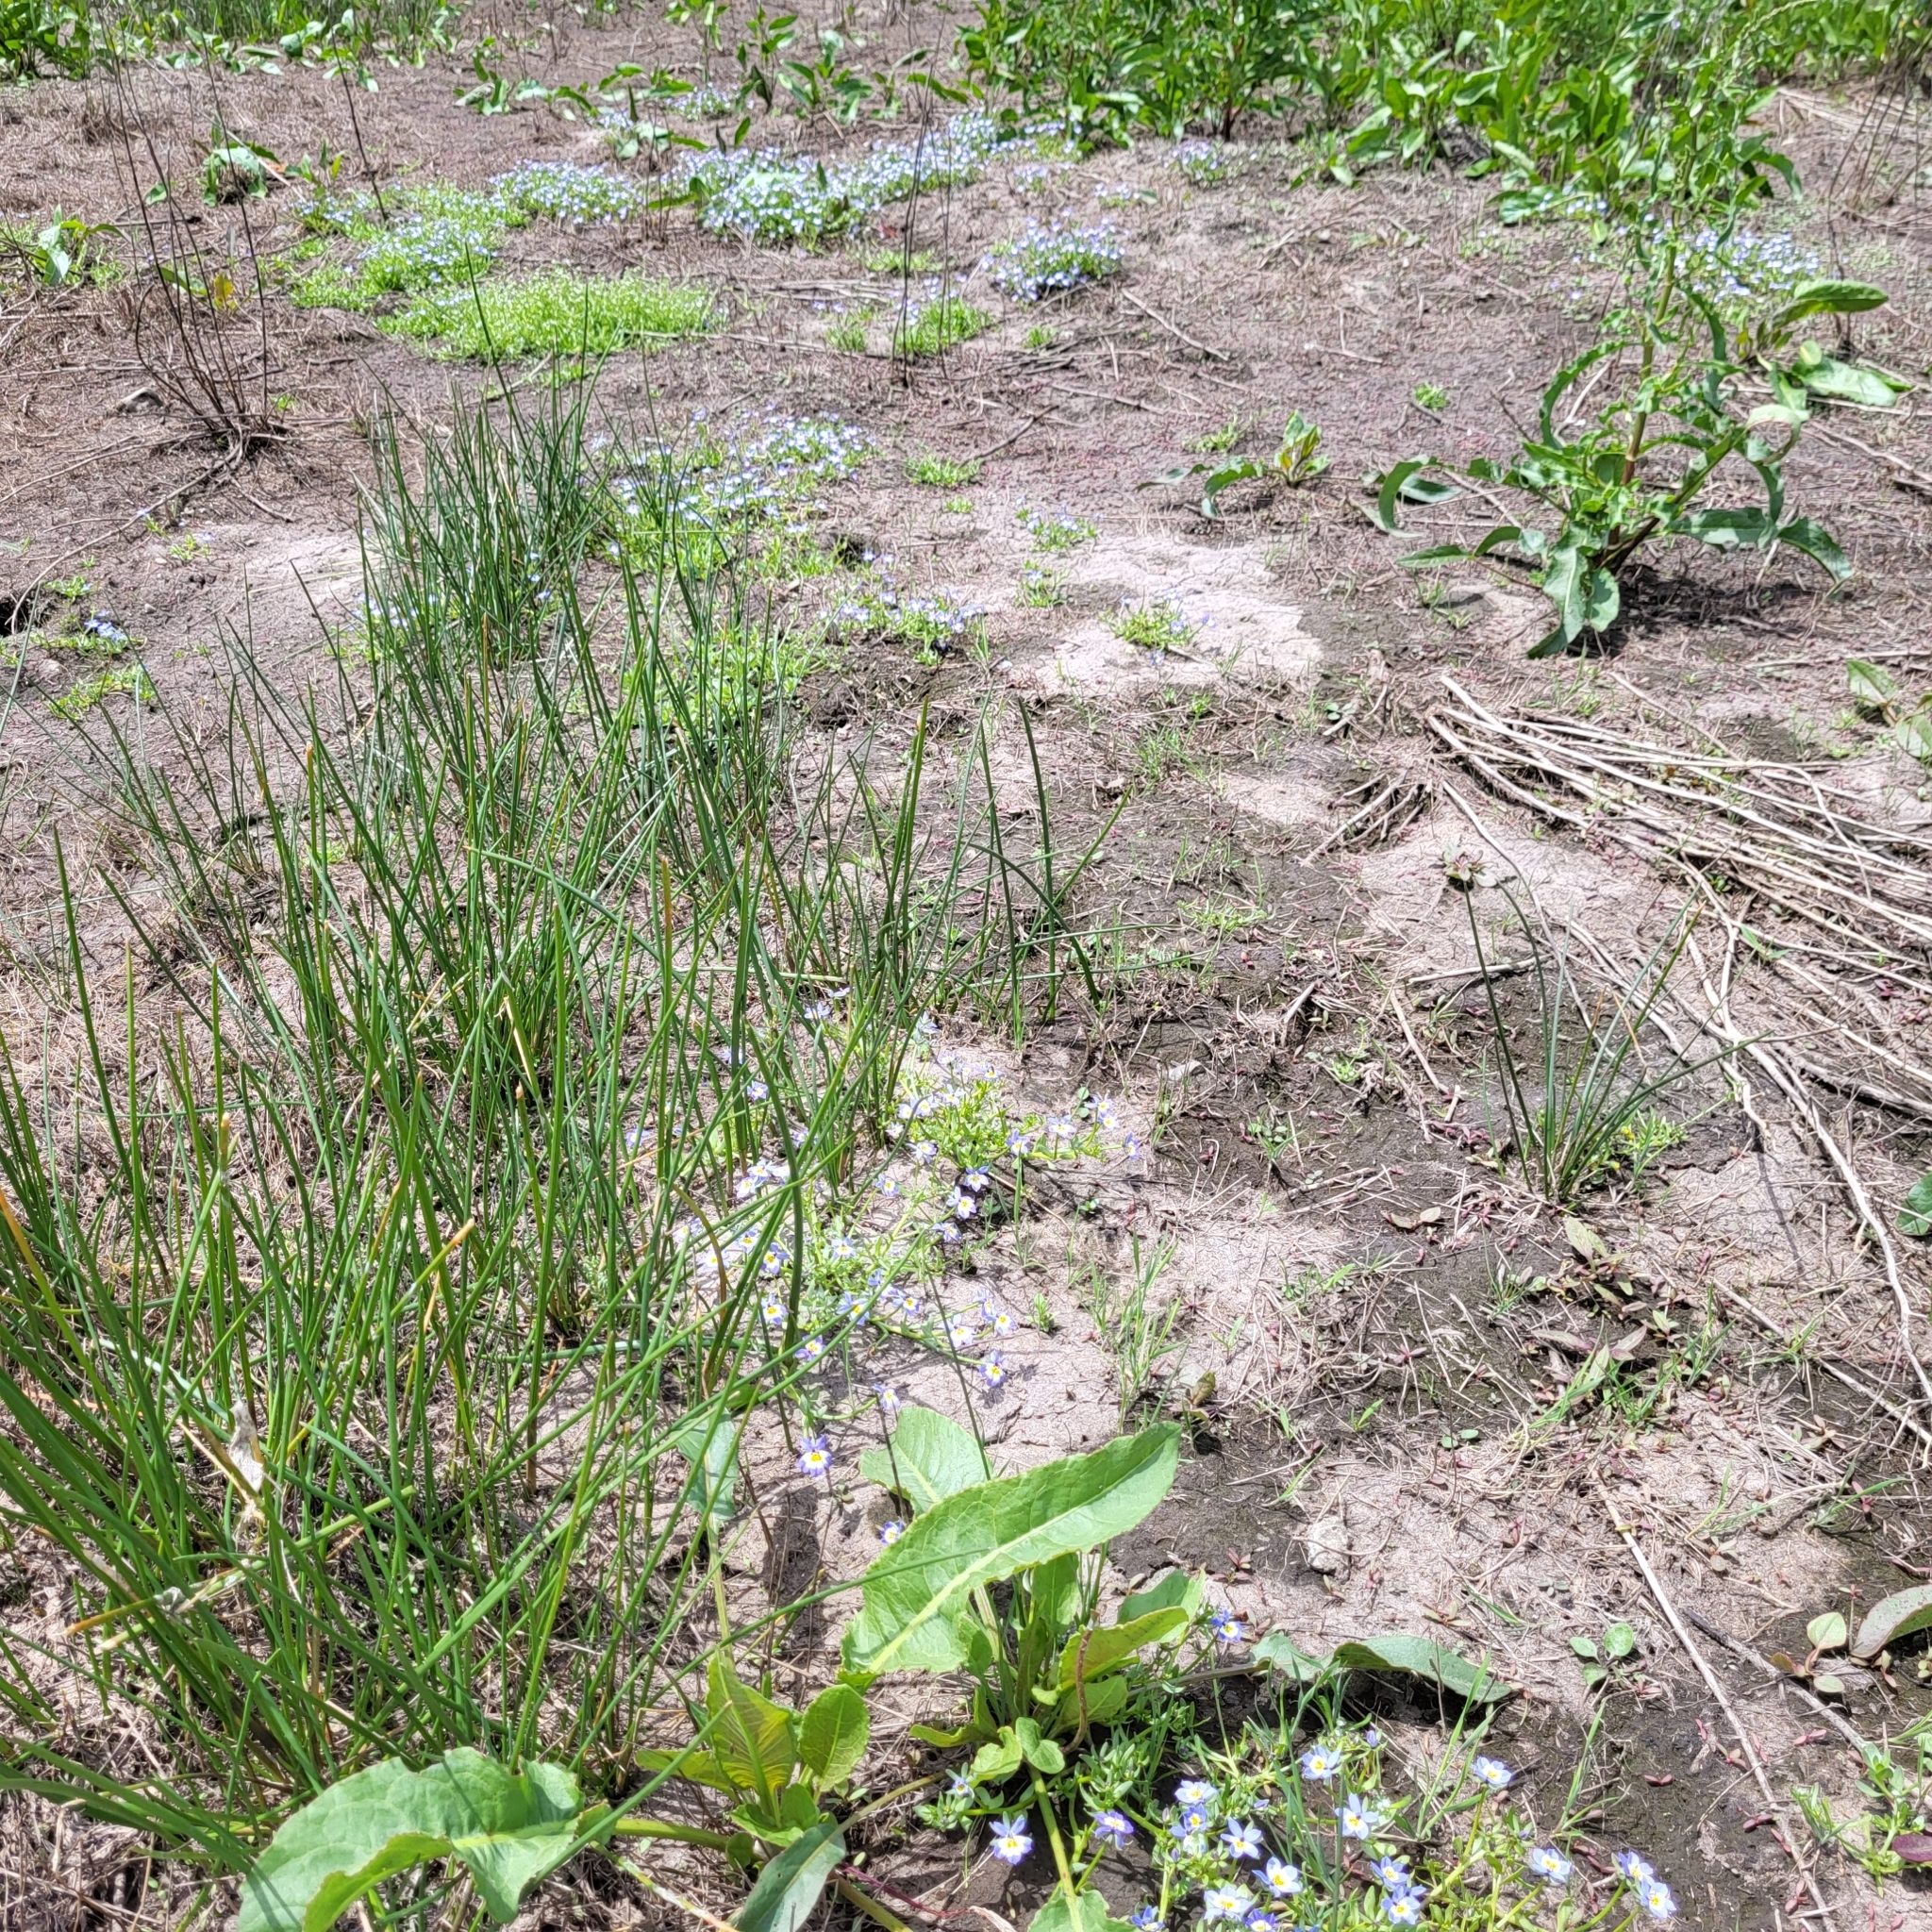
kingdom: Plantae
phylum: Tracheophyta
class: Magnoliopsida
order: Asterales
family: Campanulaceae
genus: Downingia
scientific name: Downingia pulchella
